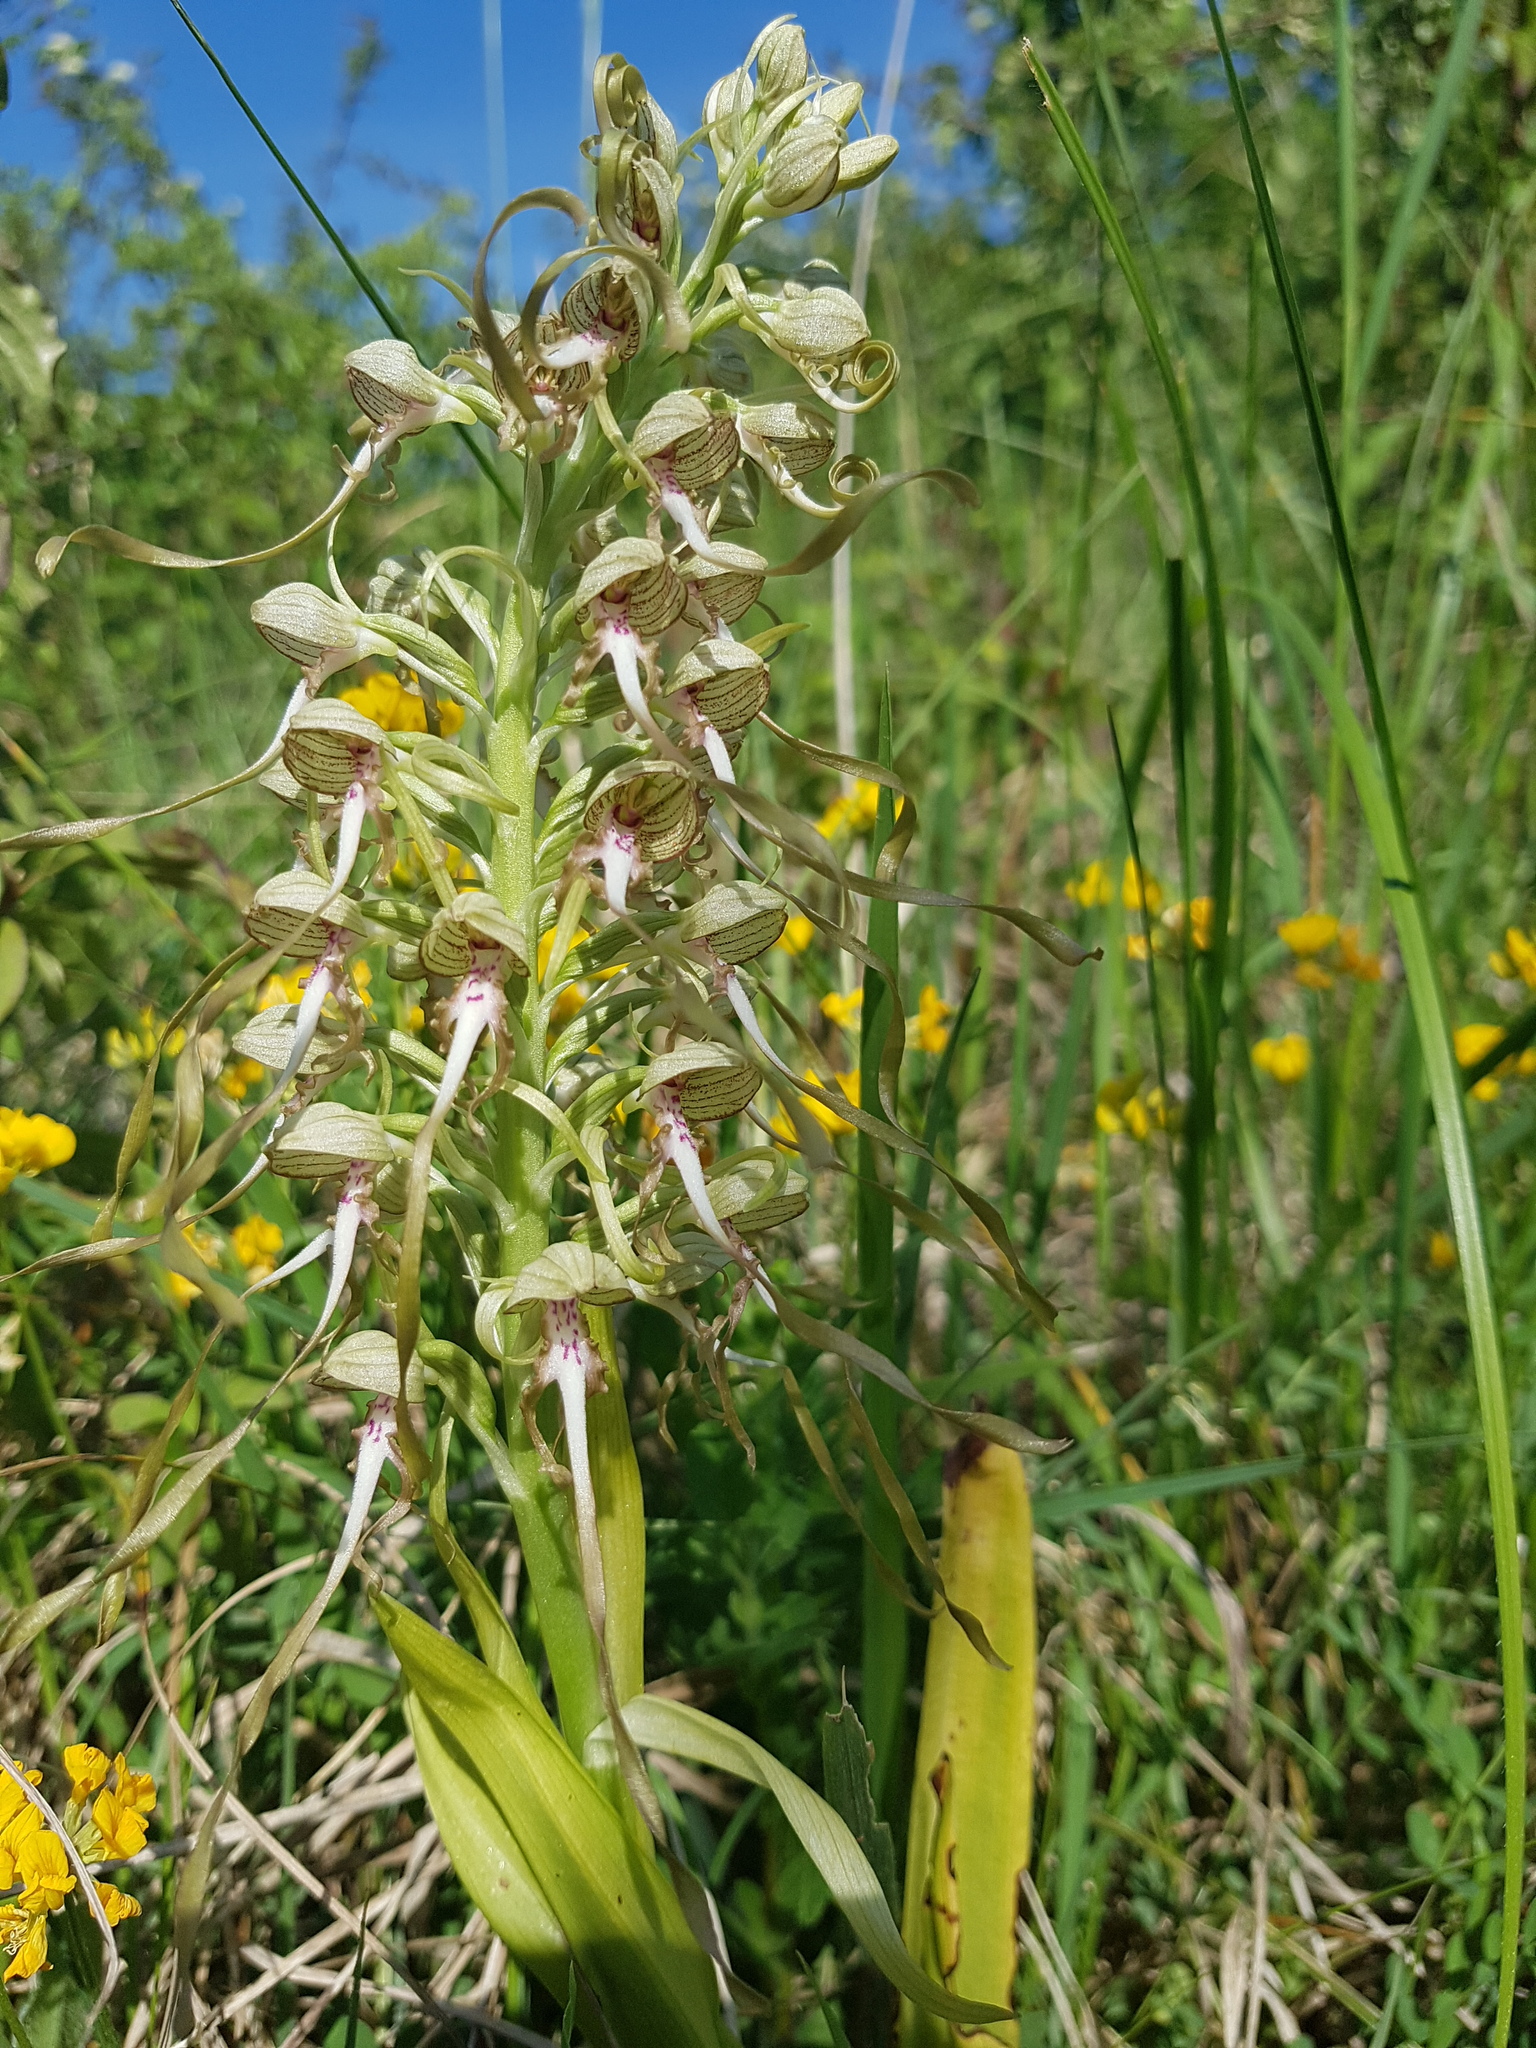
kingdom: Plantae
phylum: Tracheophyta
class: Liliopsida
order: Asparagales
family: Orchidaceae
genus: Himantoglossum
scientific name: Himantoglossum hircinum
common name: Lizard orchid
